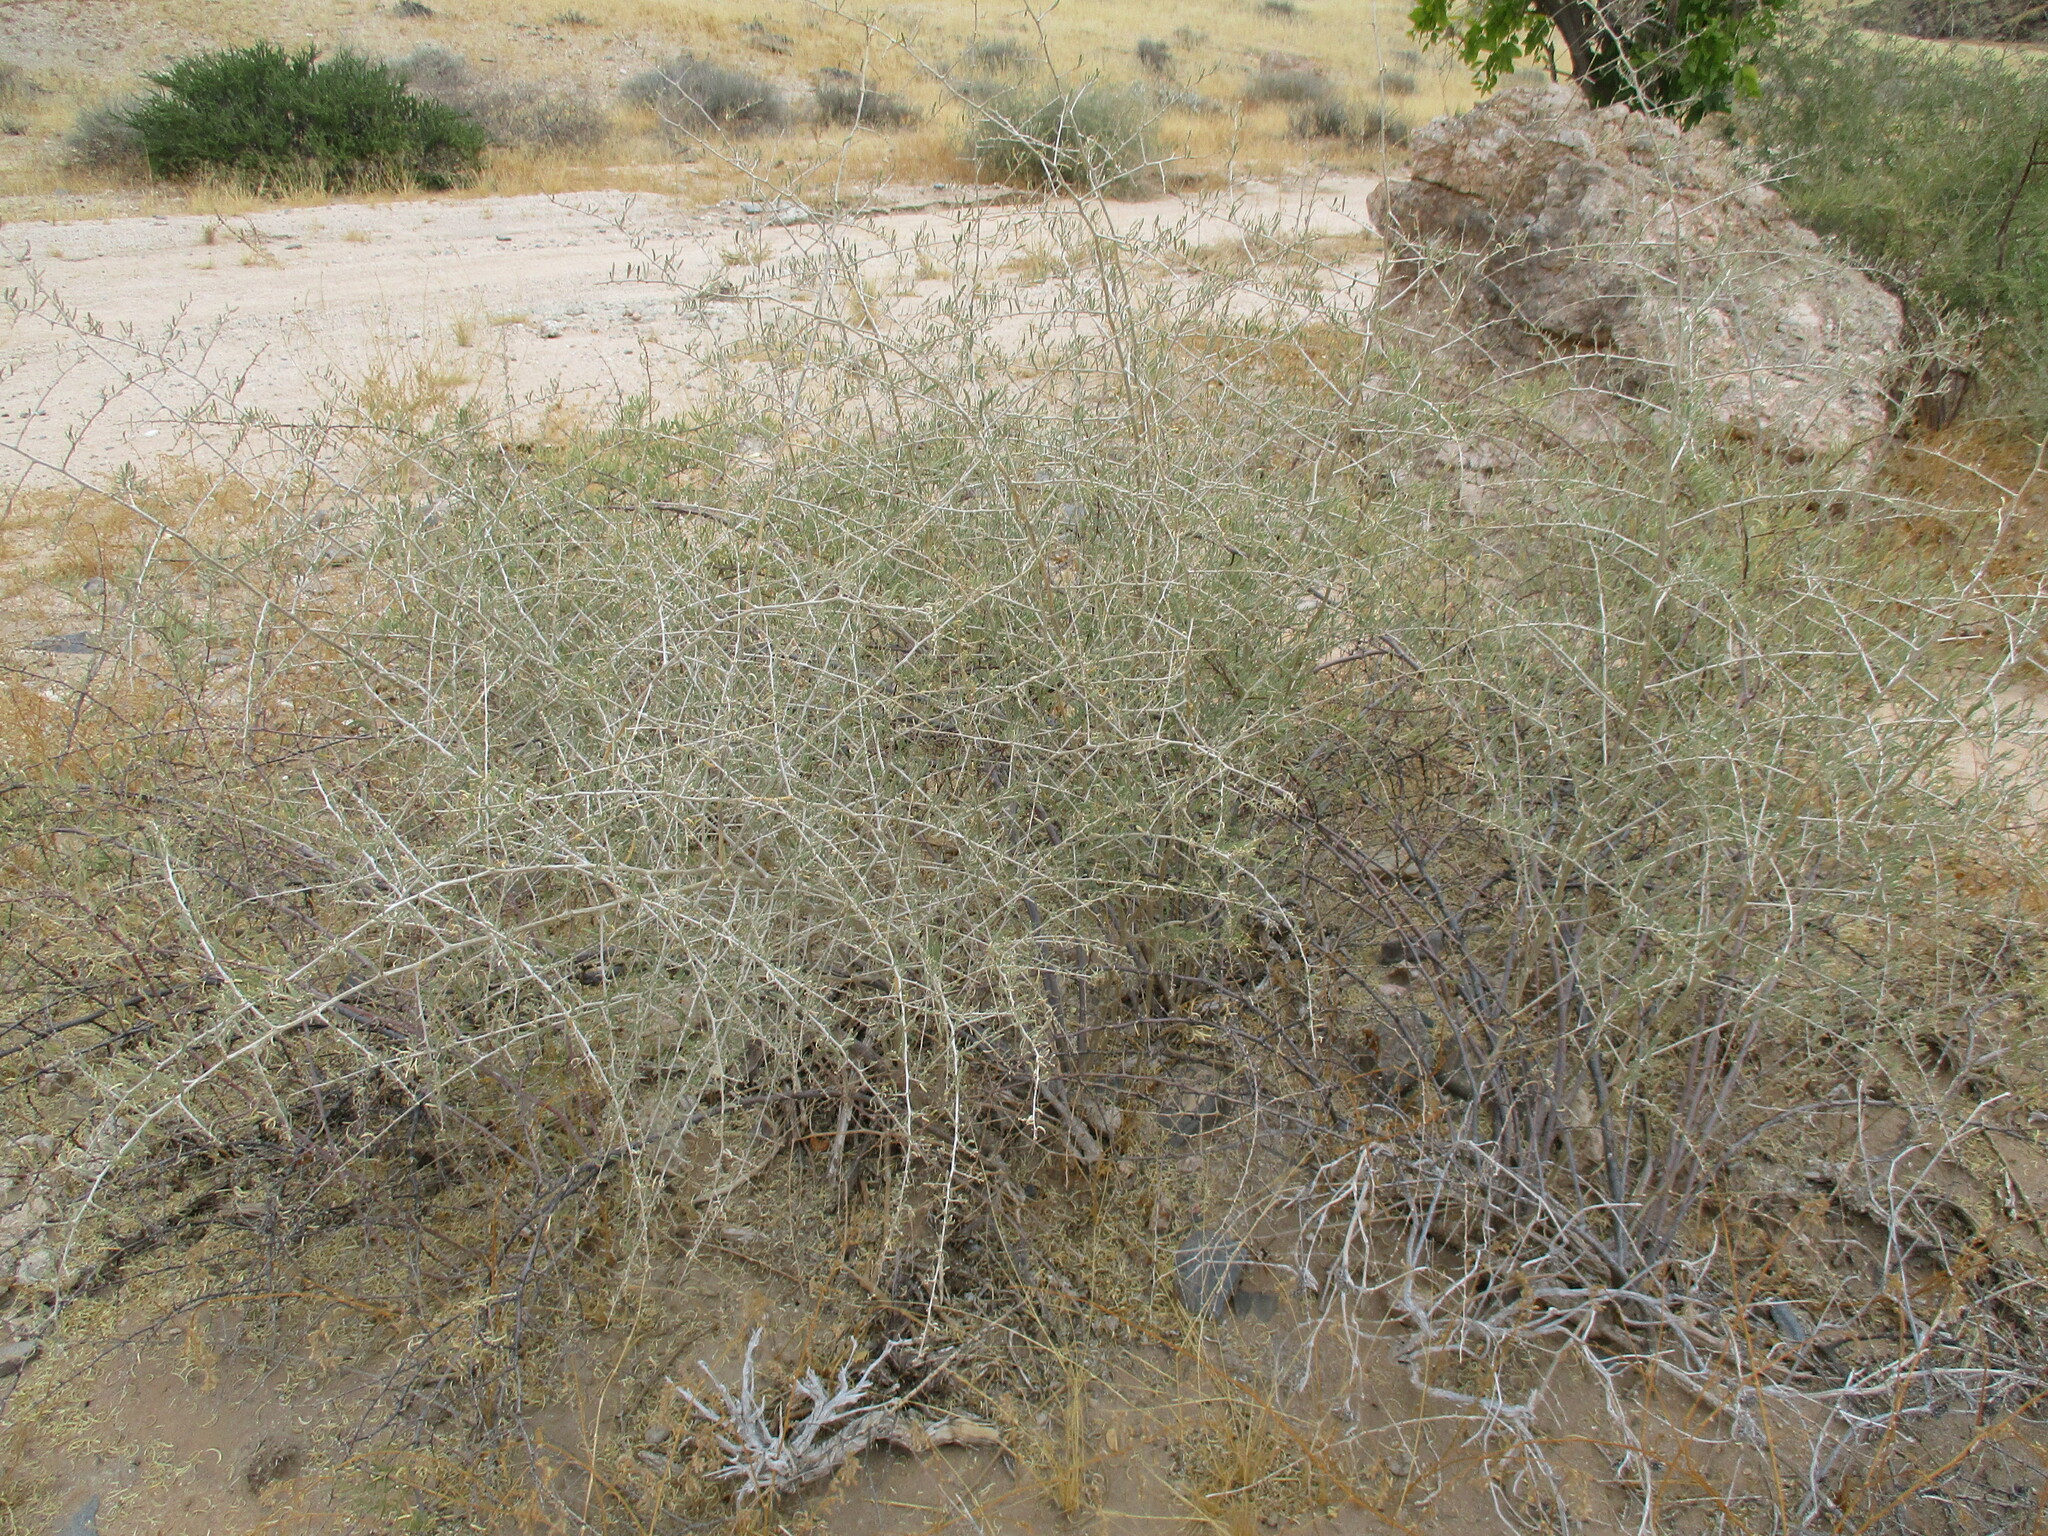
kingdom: Plantae
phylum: Tracheophyta
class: Magnoliopsida
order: Caryophyllales
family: Nyctaginaceae
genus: Phaeoptilum
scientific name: Phaeoptilum spinosum
